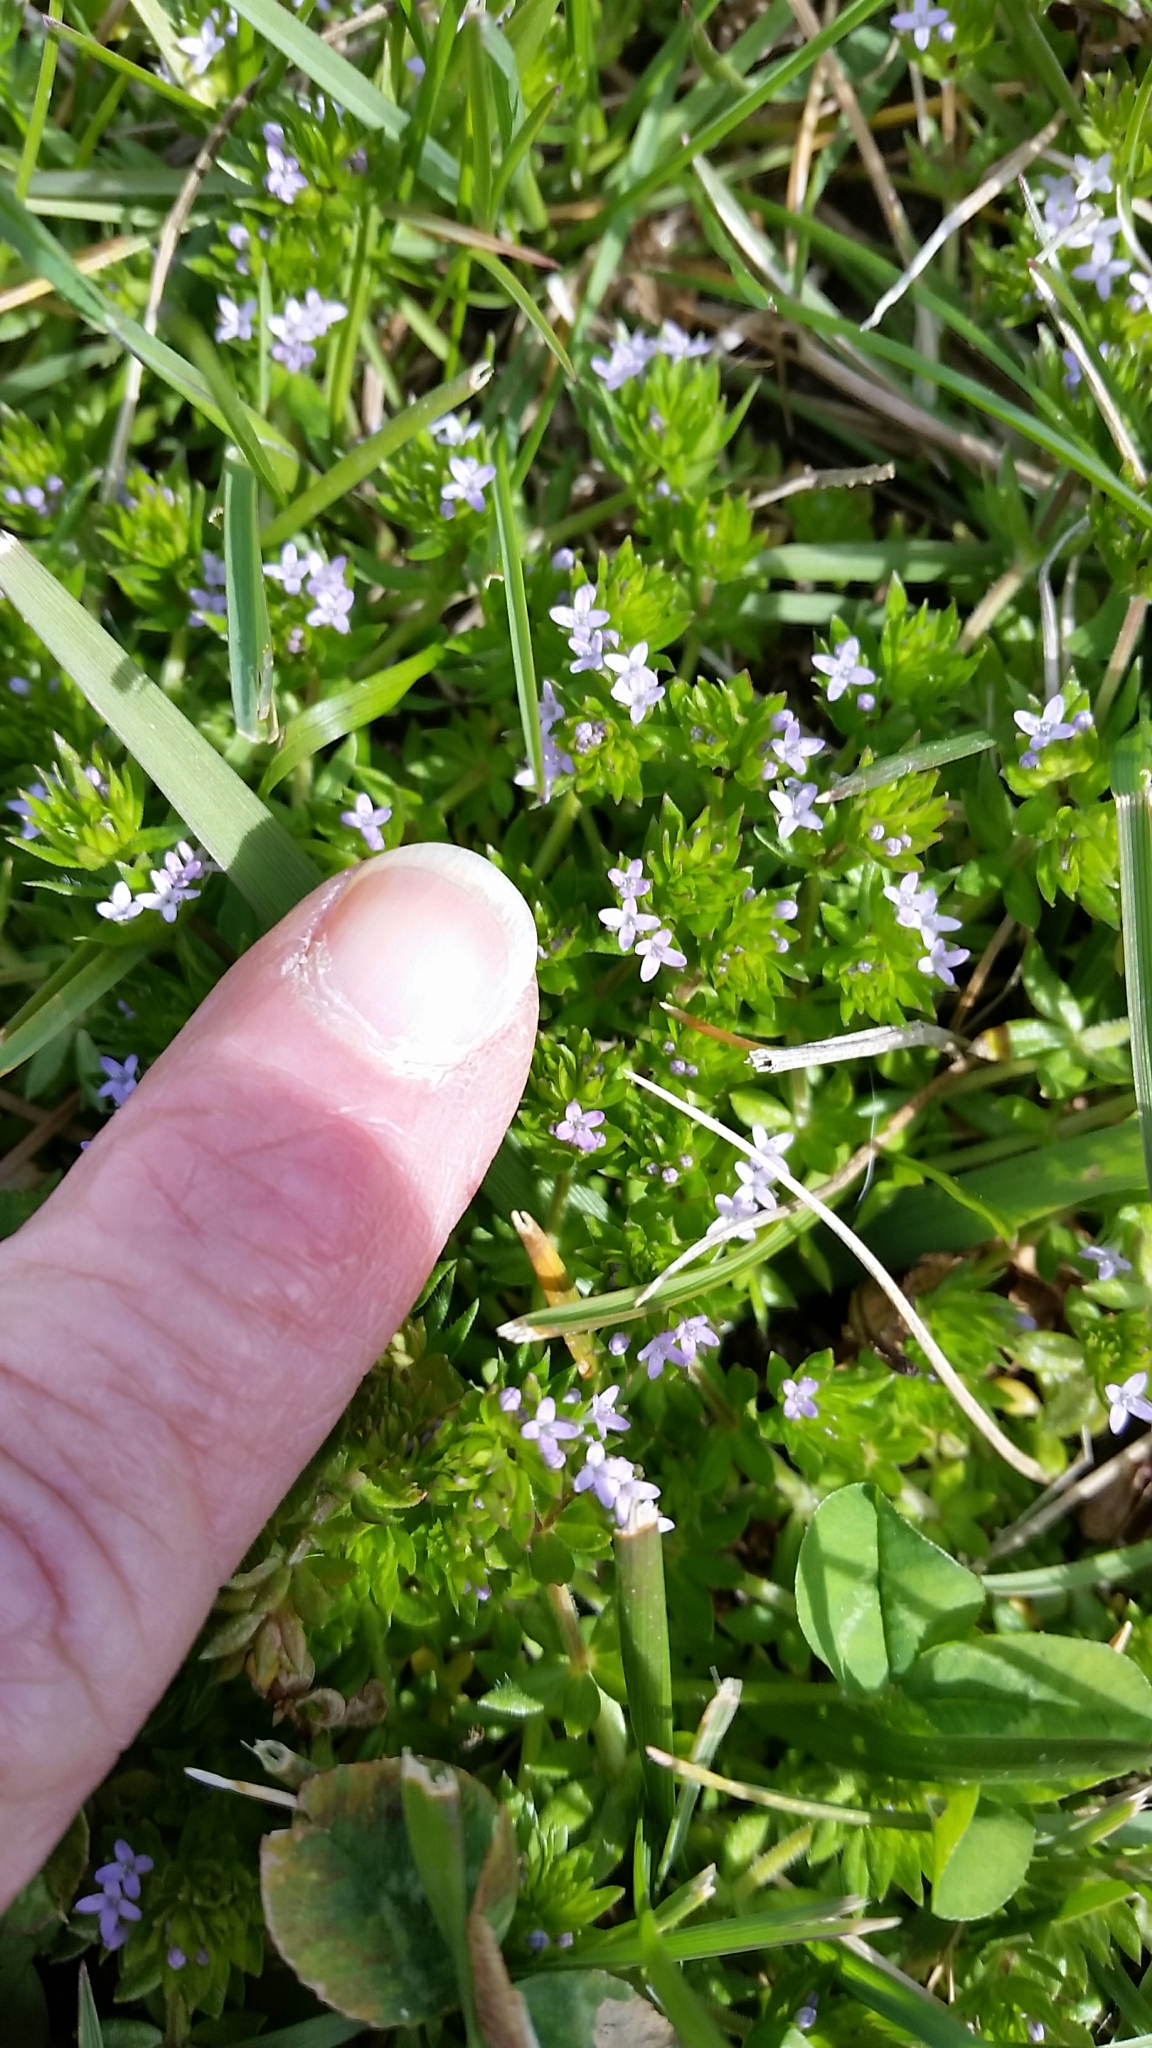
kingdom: Plantae
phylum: Tracheophyta
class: Magnoliopsida
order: Gentianales
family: Rubiaceae
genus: Sherardia
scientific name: Sherardia arvensis
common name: Field madder
